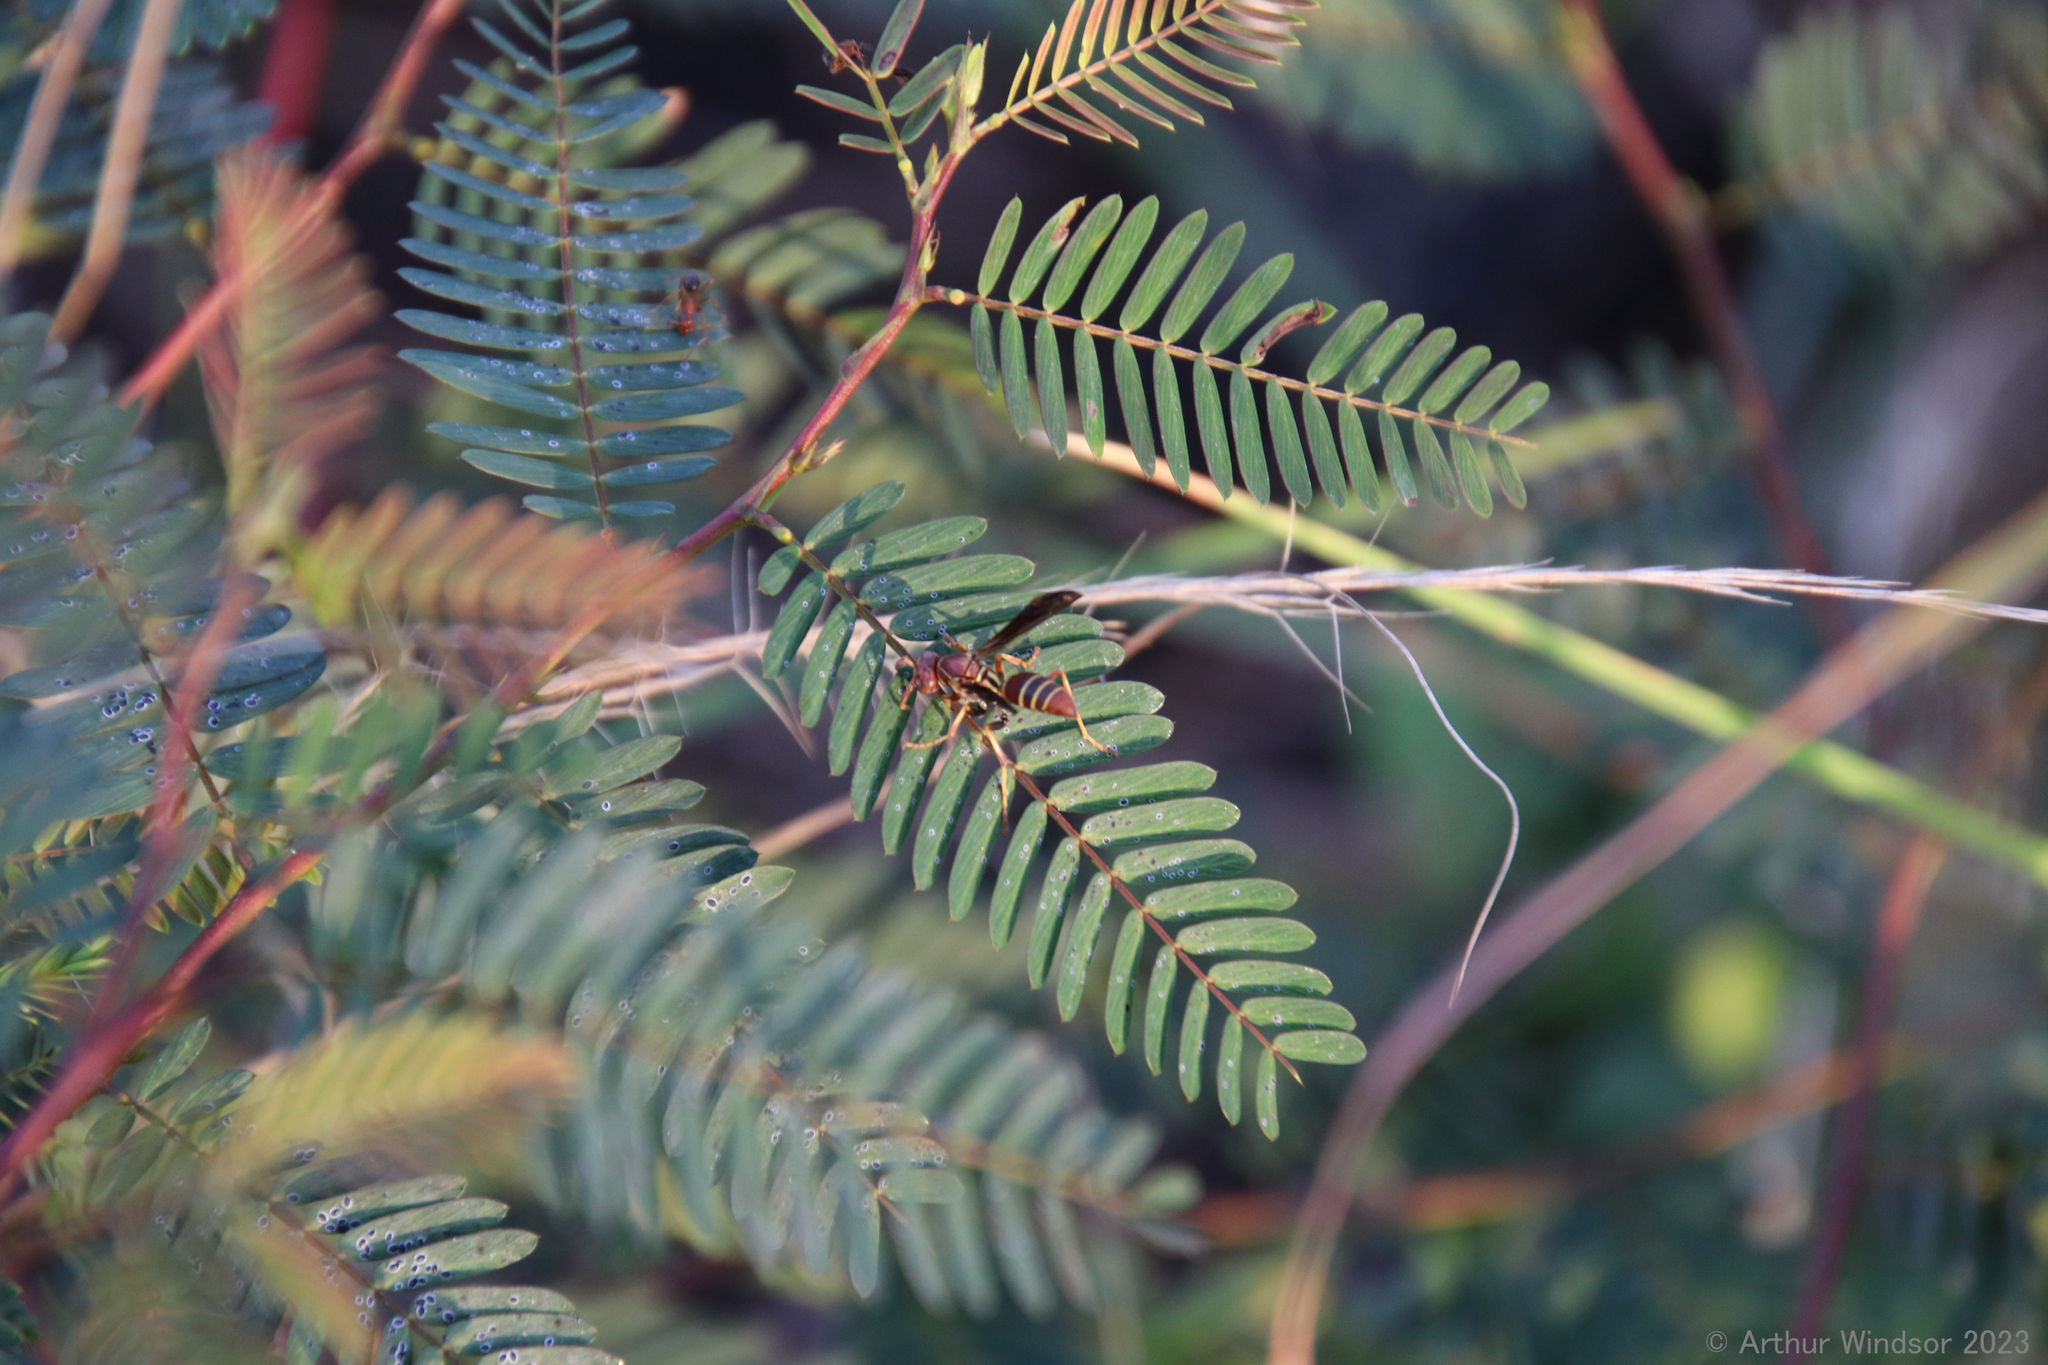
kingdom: Animalia
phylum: Arthropoda
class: Insecta
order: Hymenoptera
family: Eumenidae
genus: Polistes
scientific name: Polistes bellicosus
